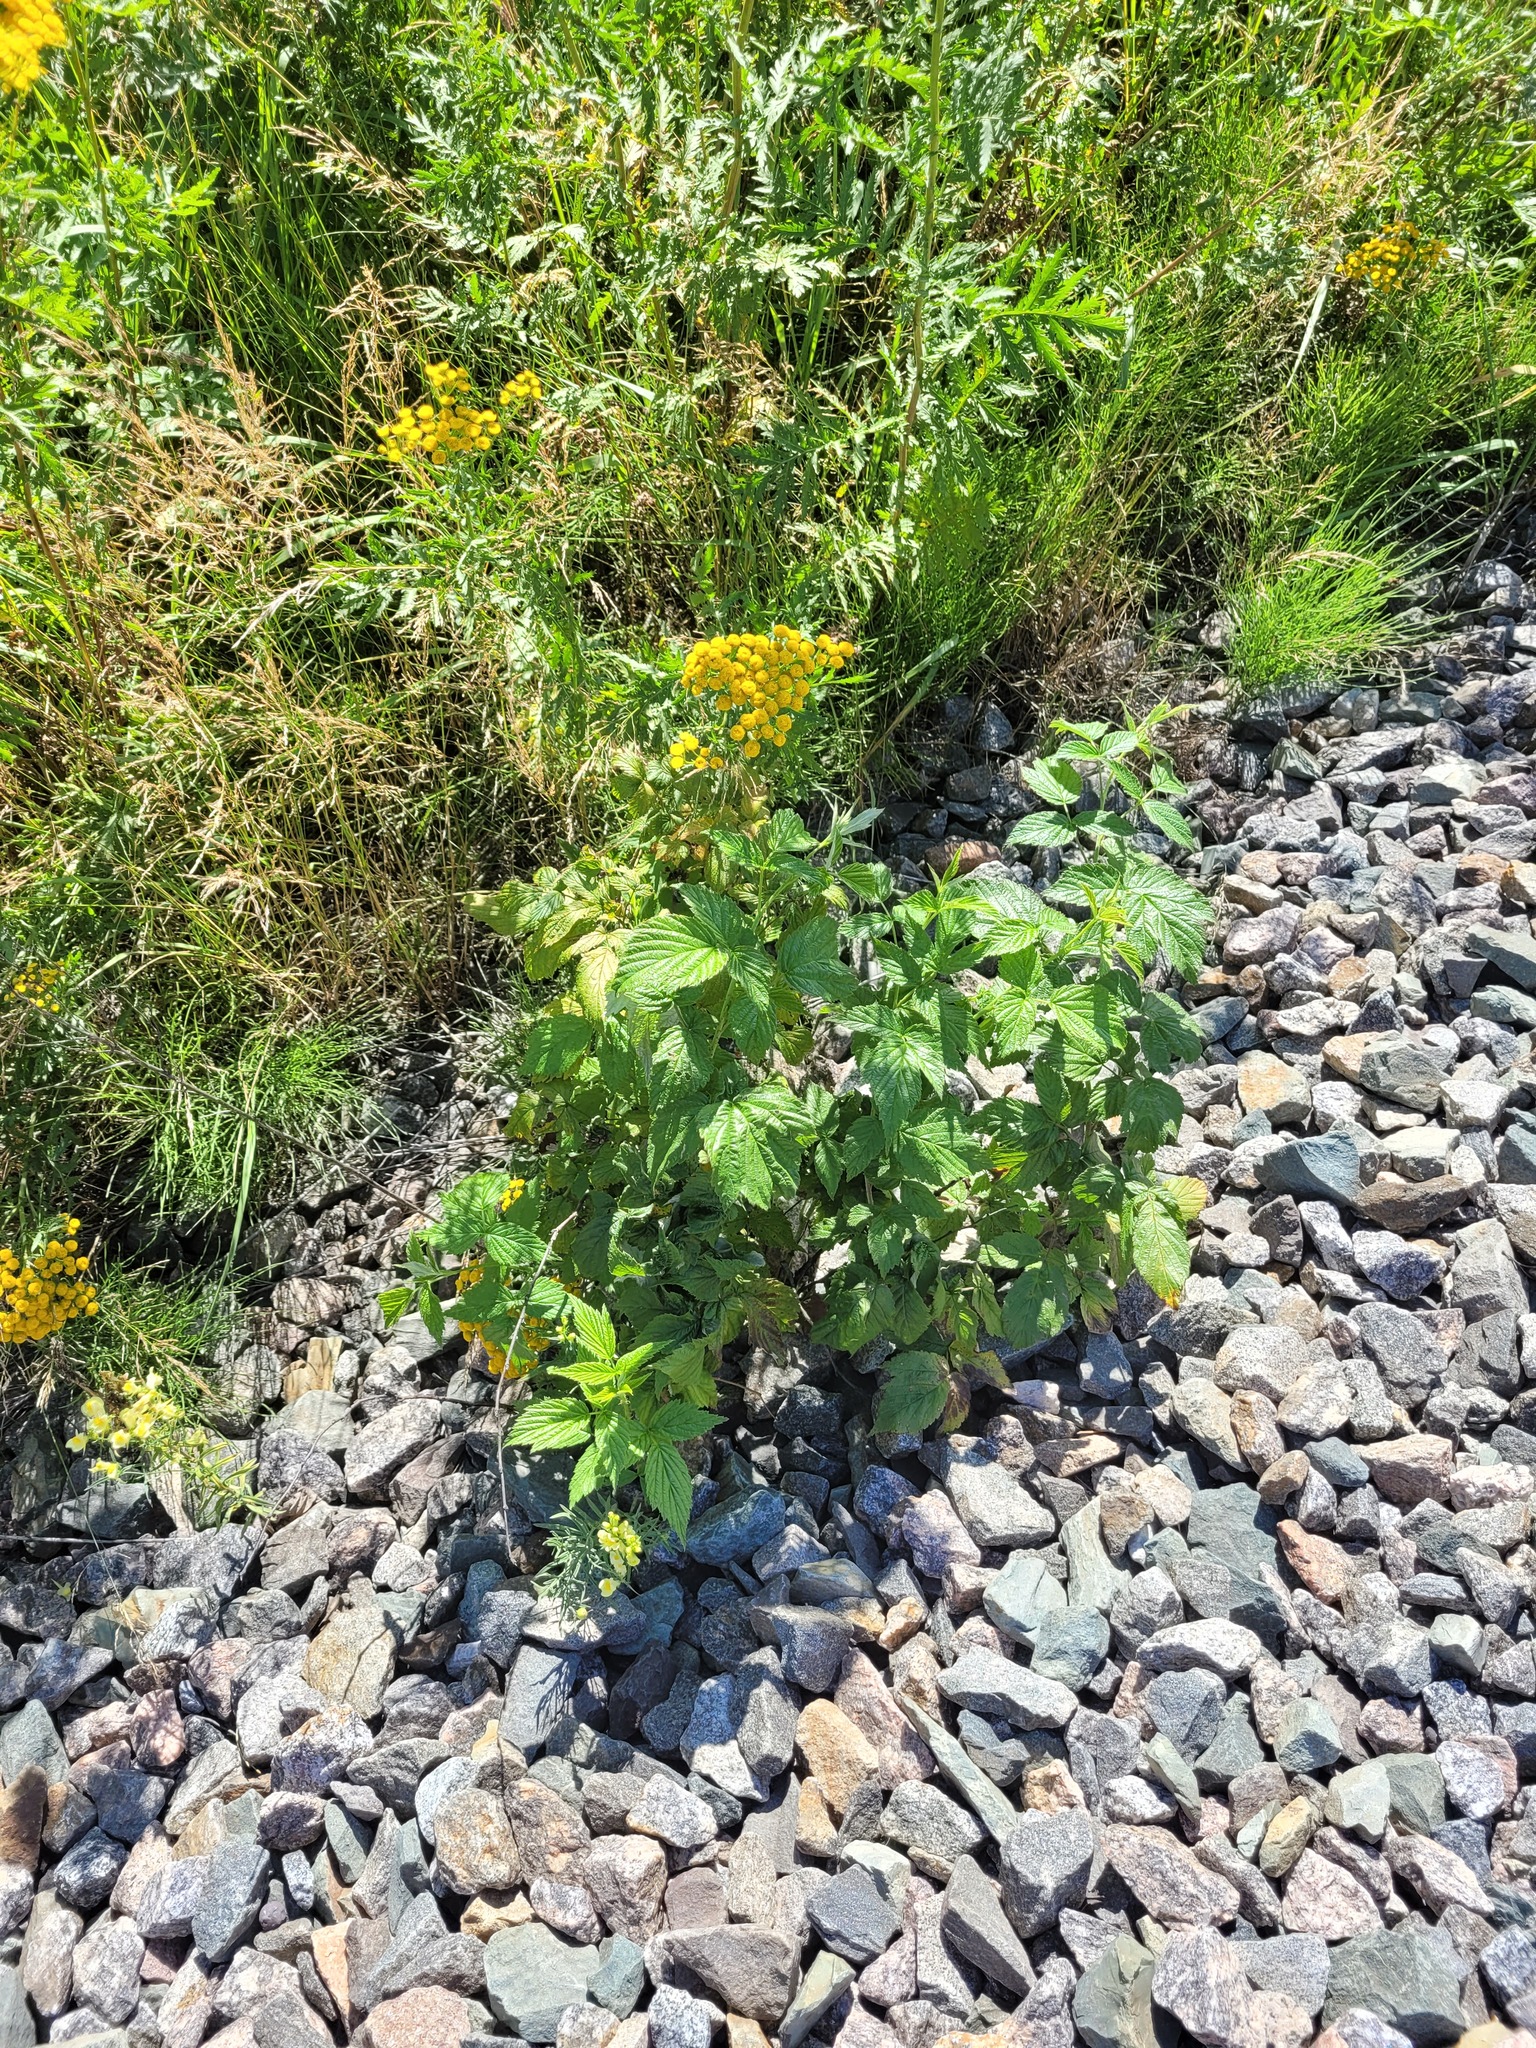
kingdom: Plantae
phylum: Tracheophyta
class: Magnoliopsida
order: Rosales
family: Rosaceae
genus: Rubus
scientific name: Rubus idaeus
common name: Raspberry
